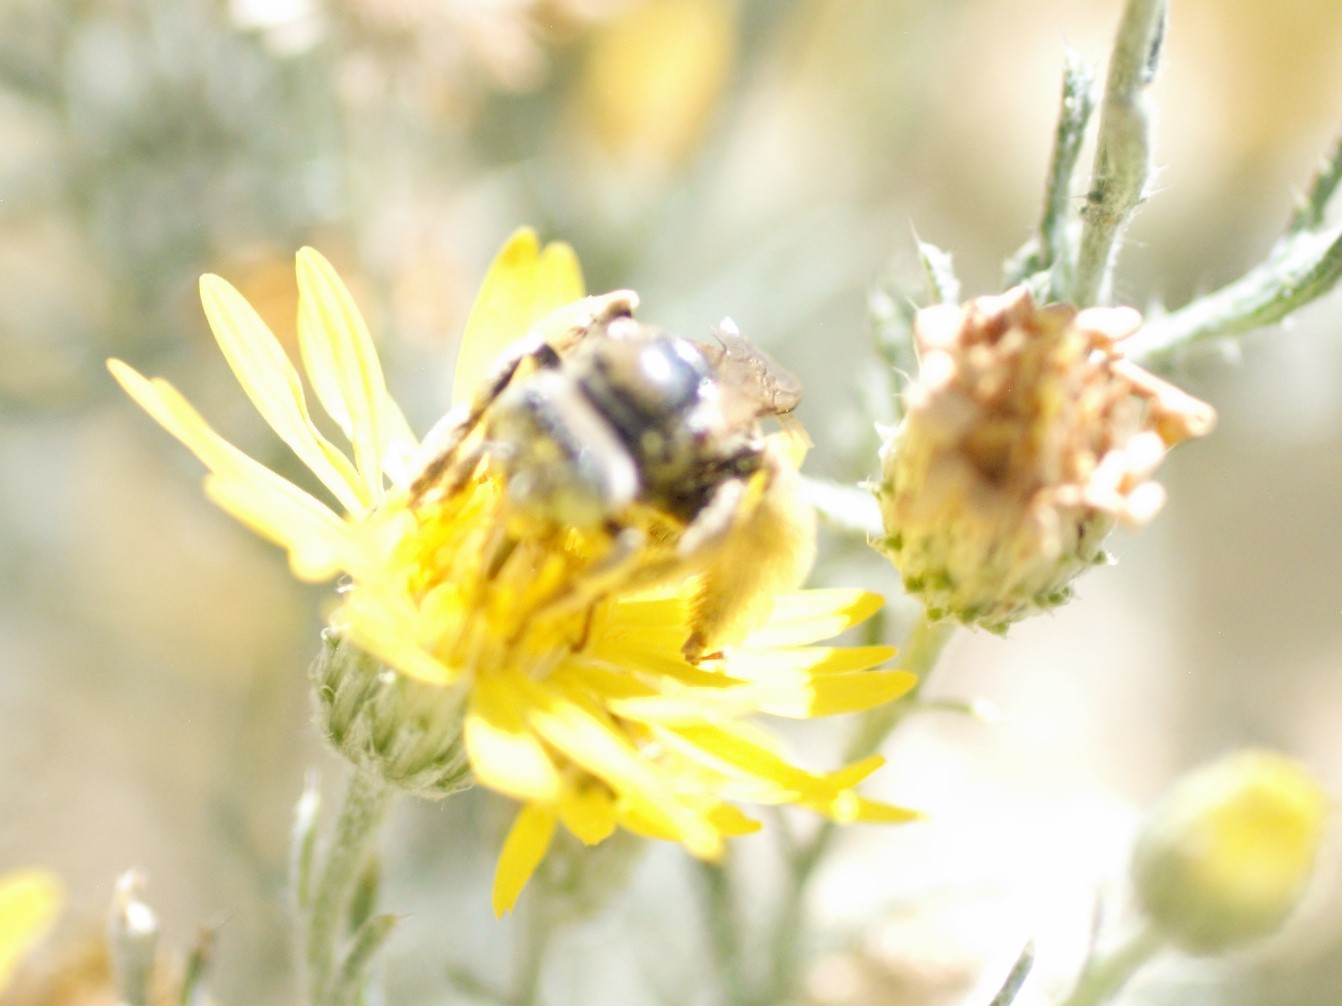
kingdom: Animalia
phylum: Arthropoda
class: Insecta
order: Hymenoptera
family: Apidae
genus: Apidae
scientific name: Apidae
